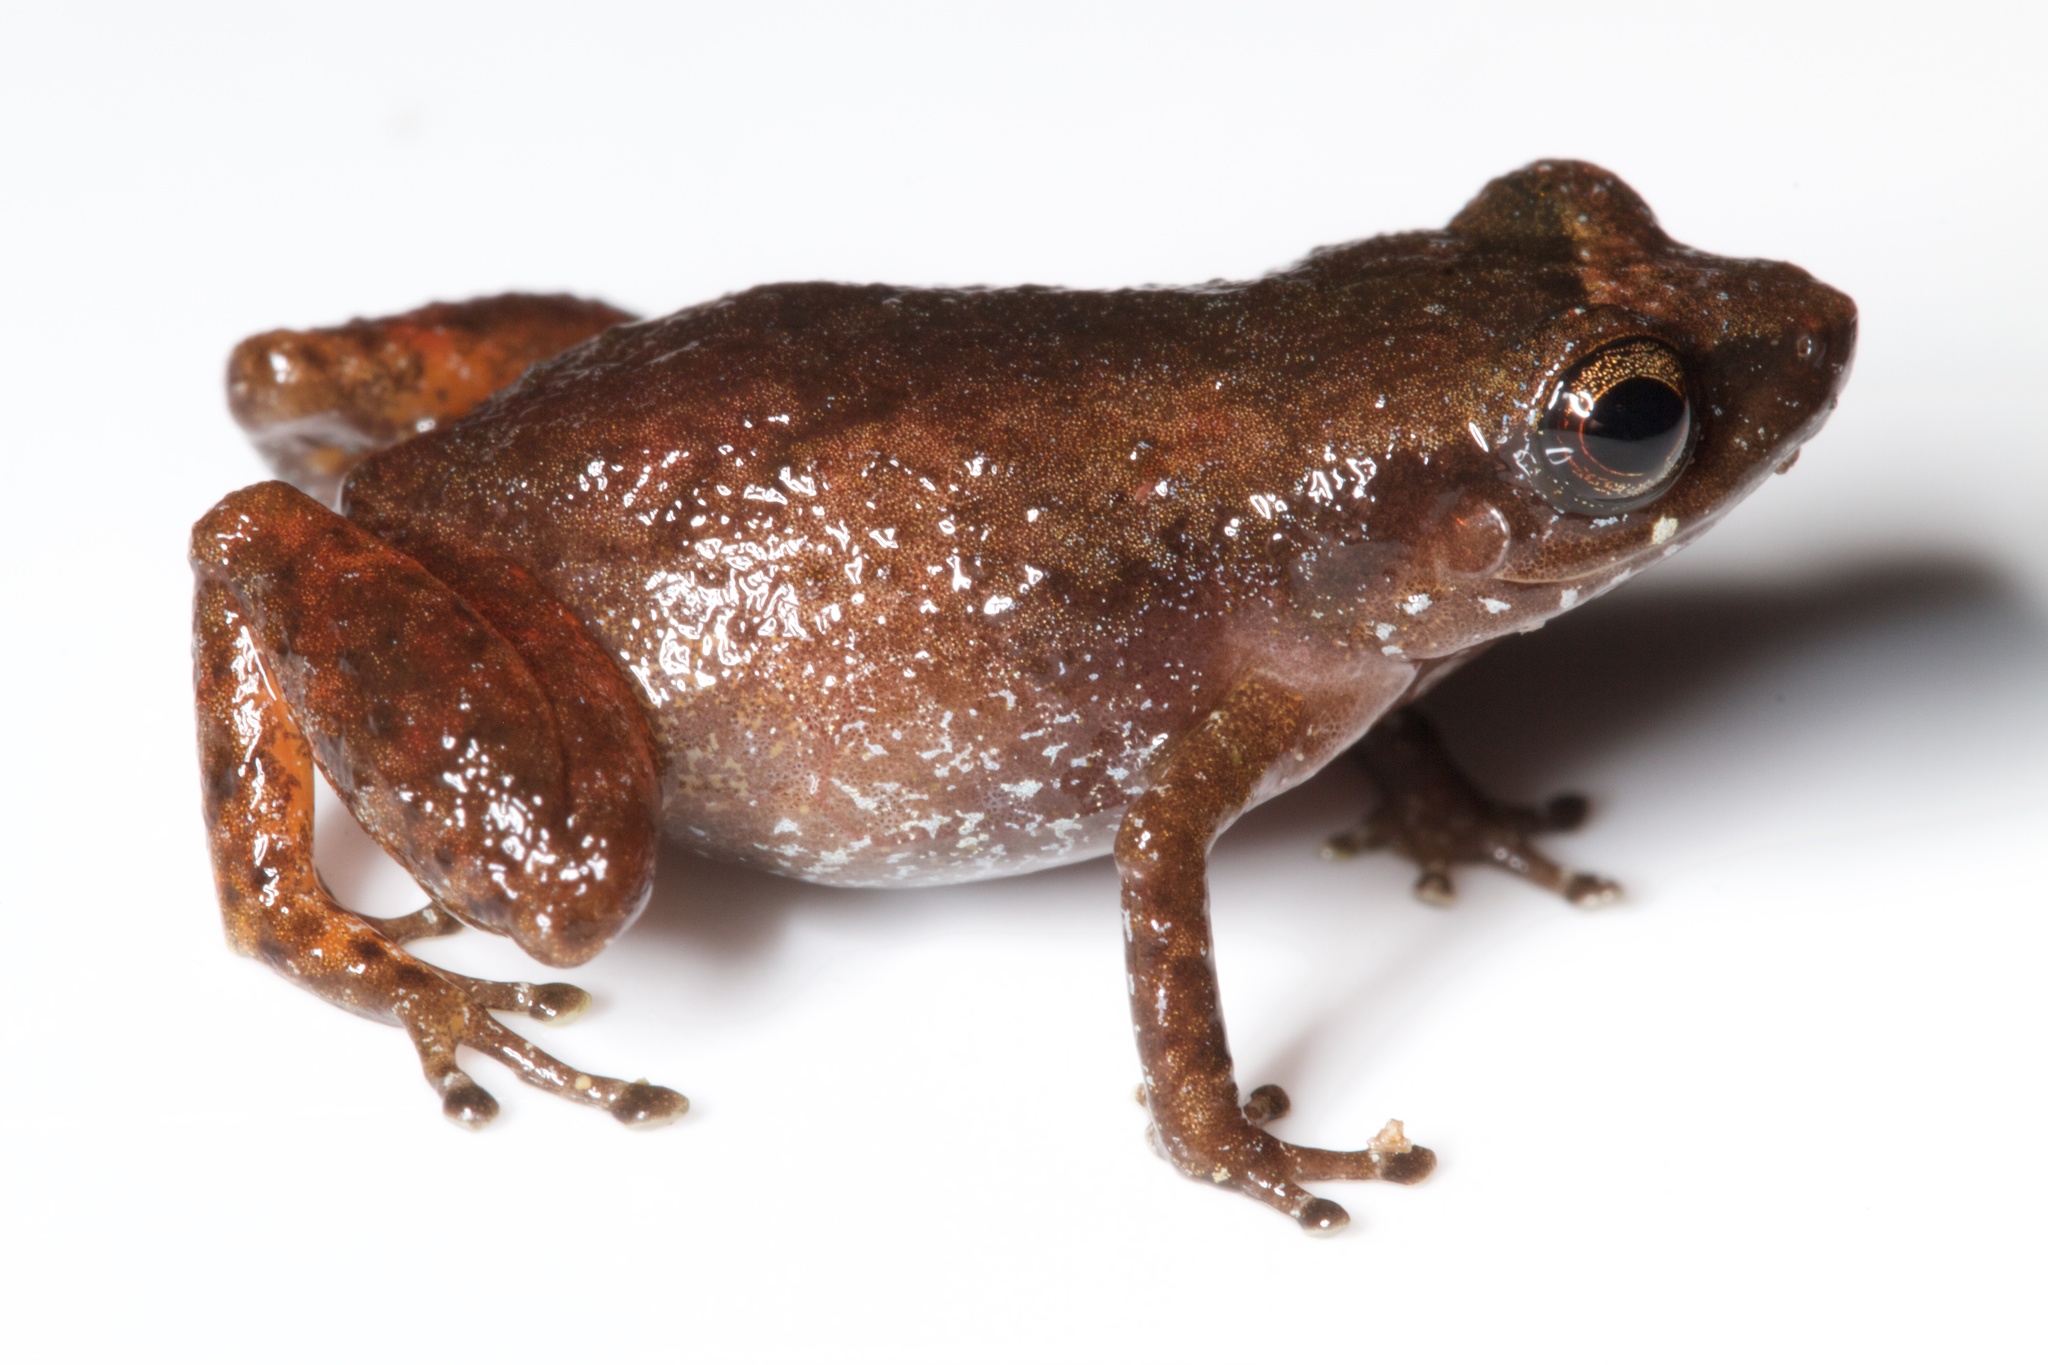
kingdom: Animalia
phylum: Chordata
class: Amphibia
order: Anura
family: Eleutherodactylidae
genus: Diasporus
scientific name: Diasporus diastema
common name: Caretta robber frog
